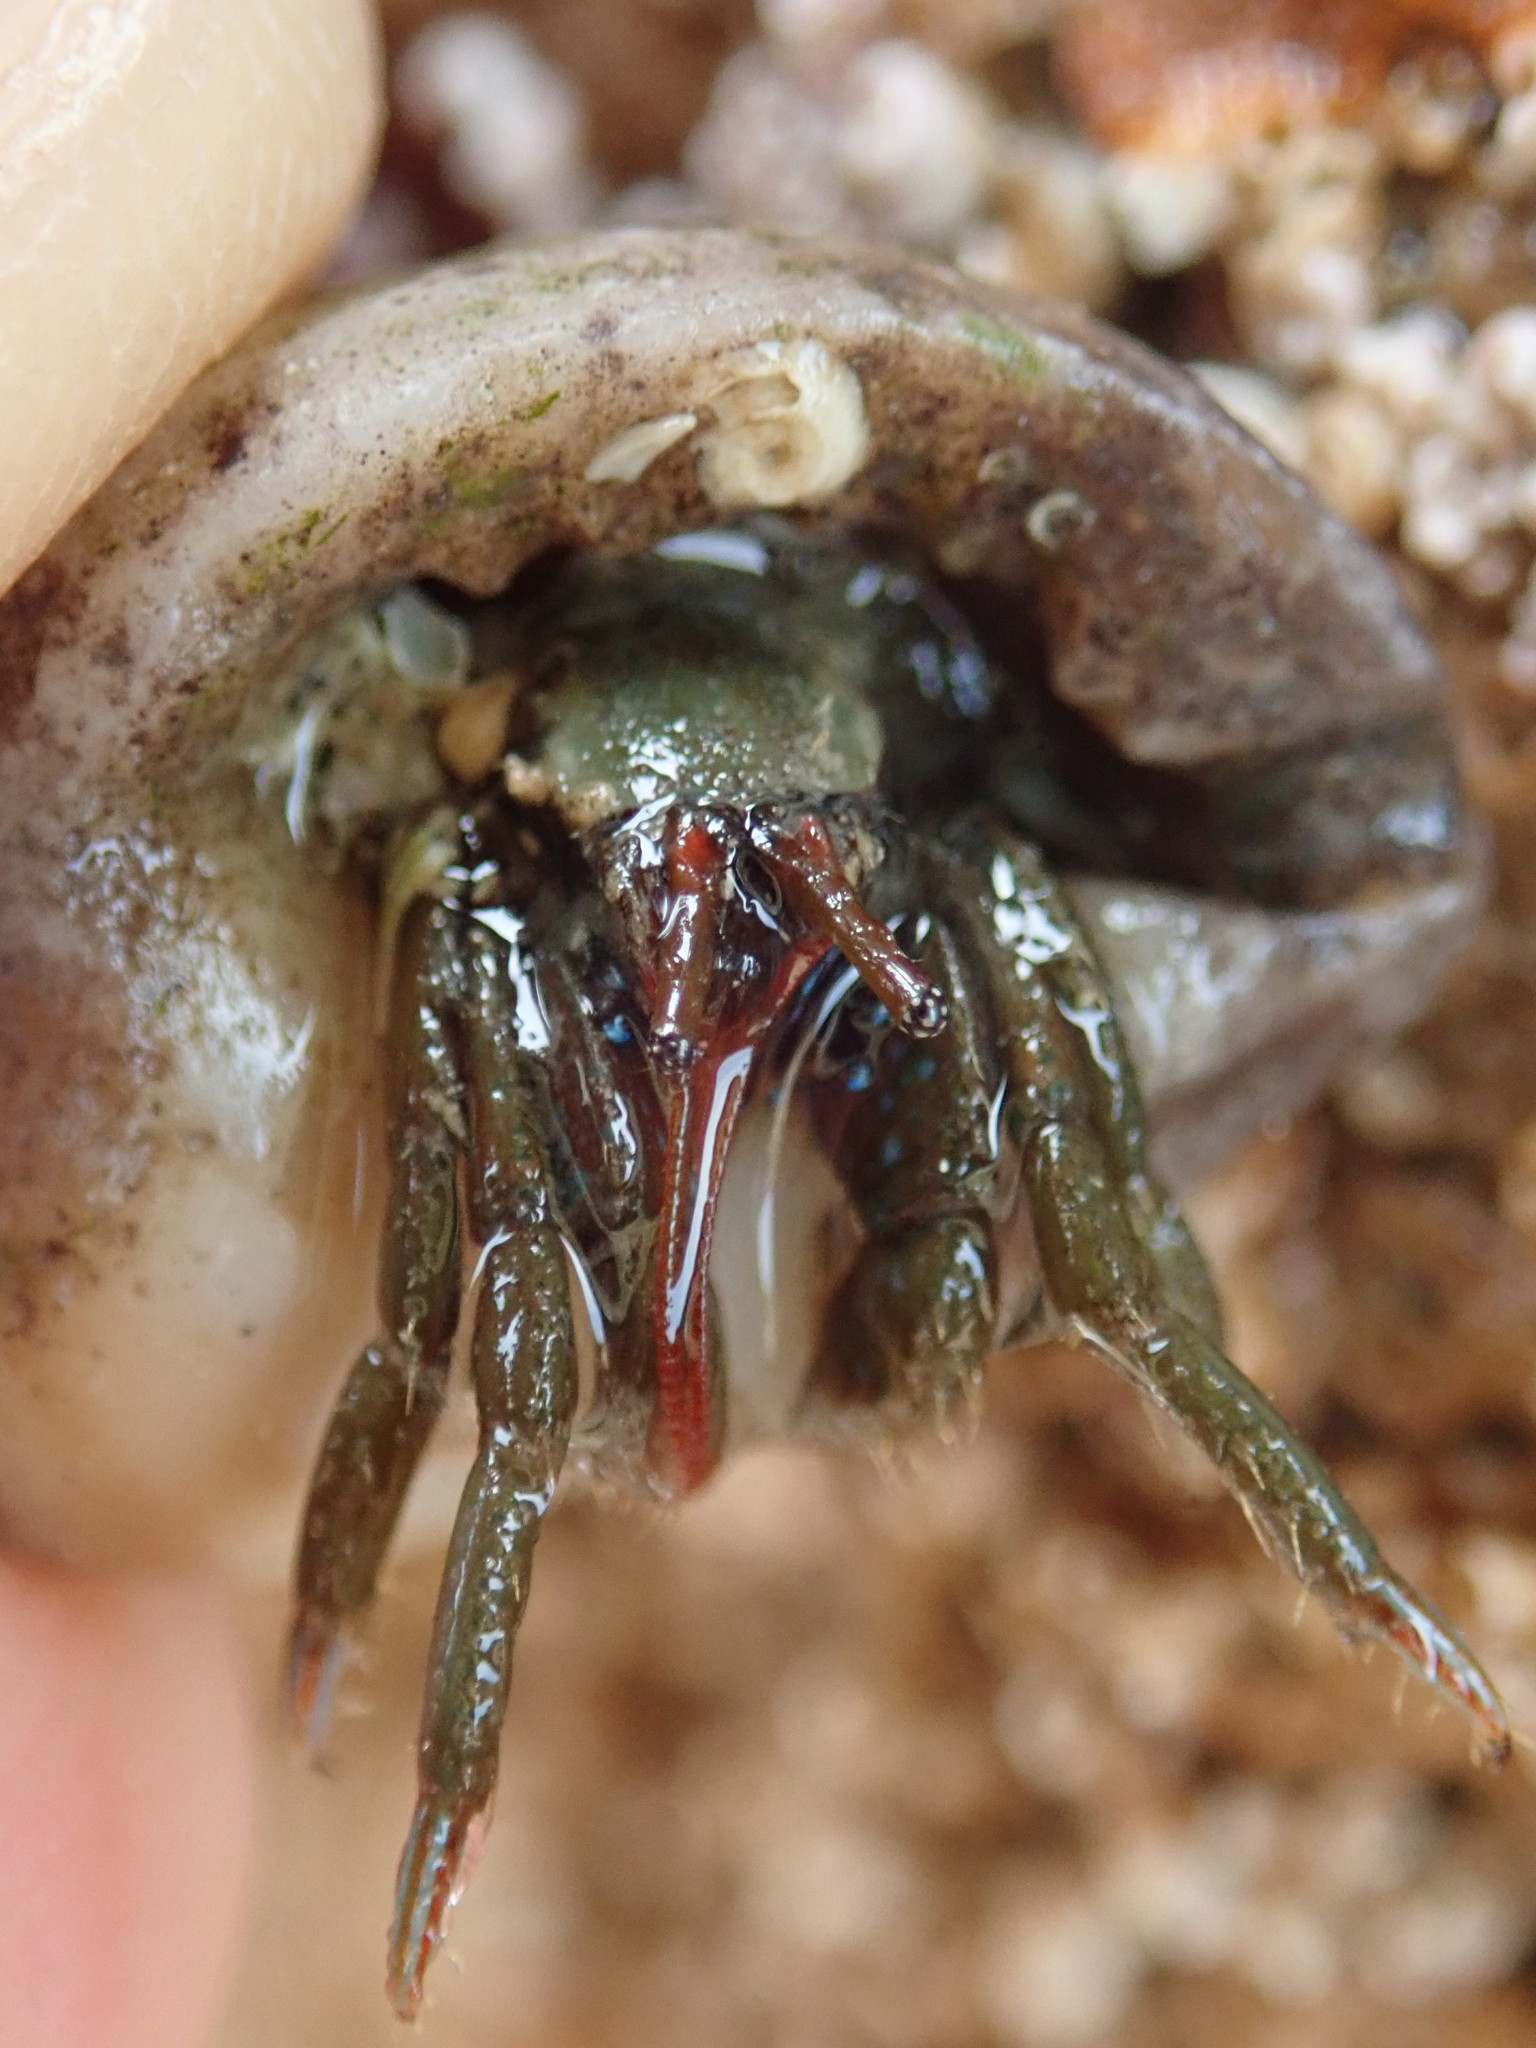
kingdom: Animalia
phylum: Arthropoda
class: Malacostraca
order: Decapoda
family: Diogenidae
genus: Clibanarius
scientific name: Clibanarius erythropus
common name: Hermit crab
